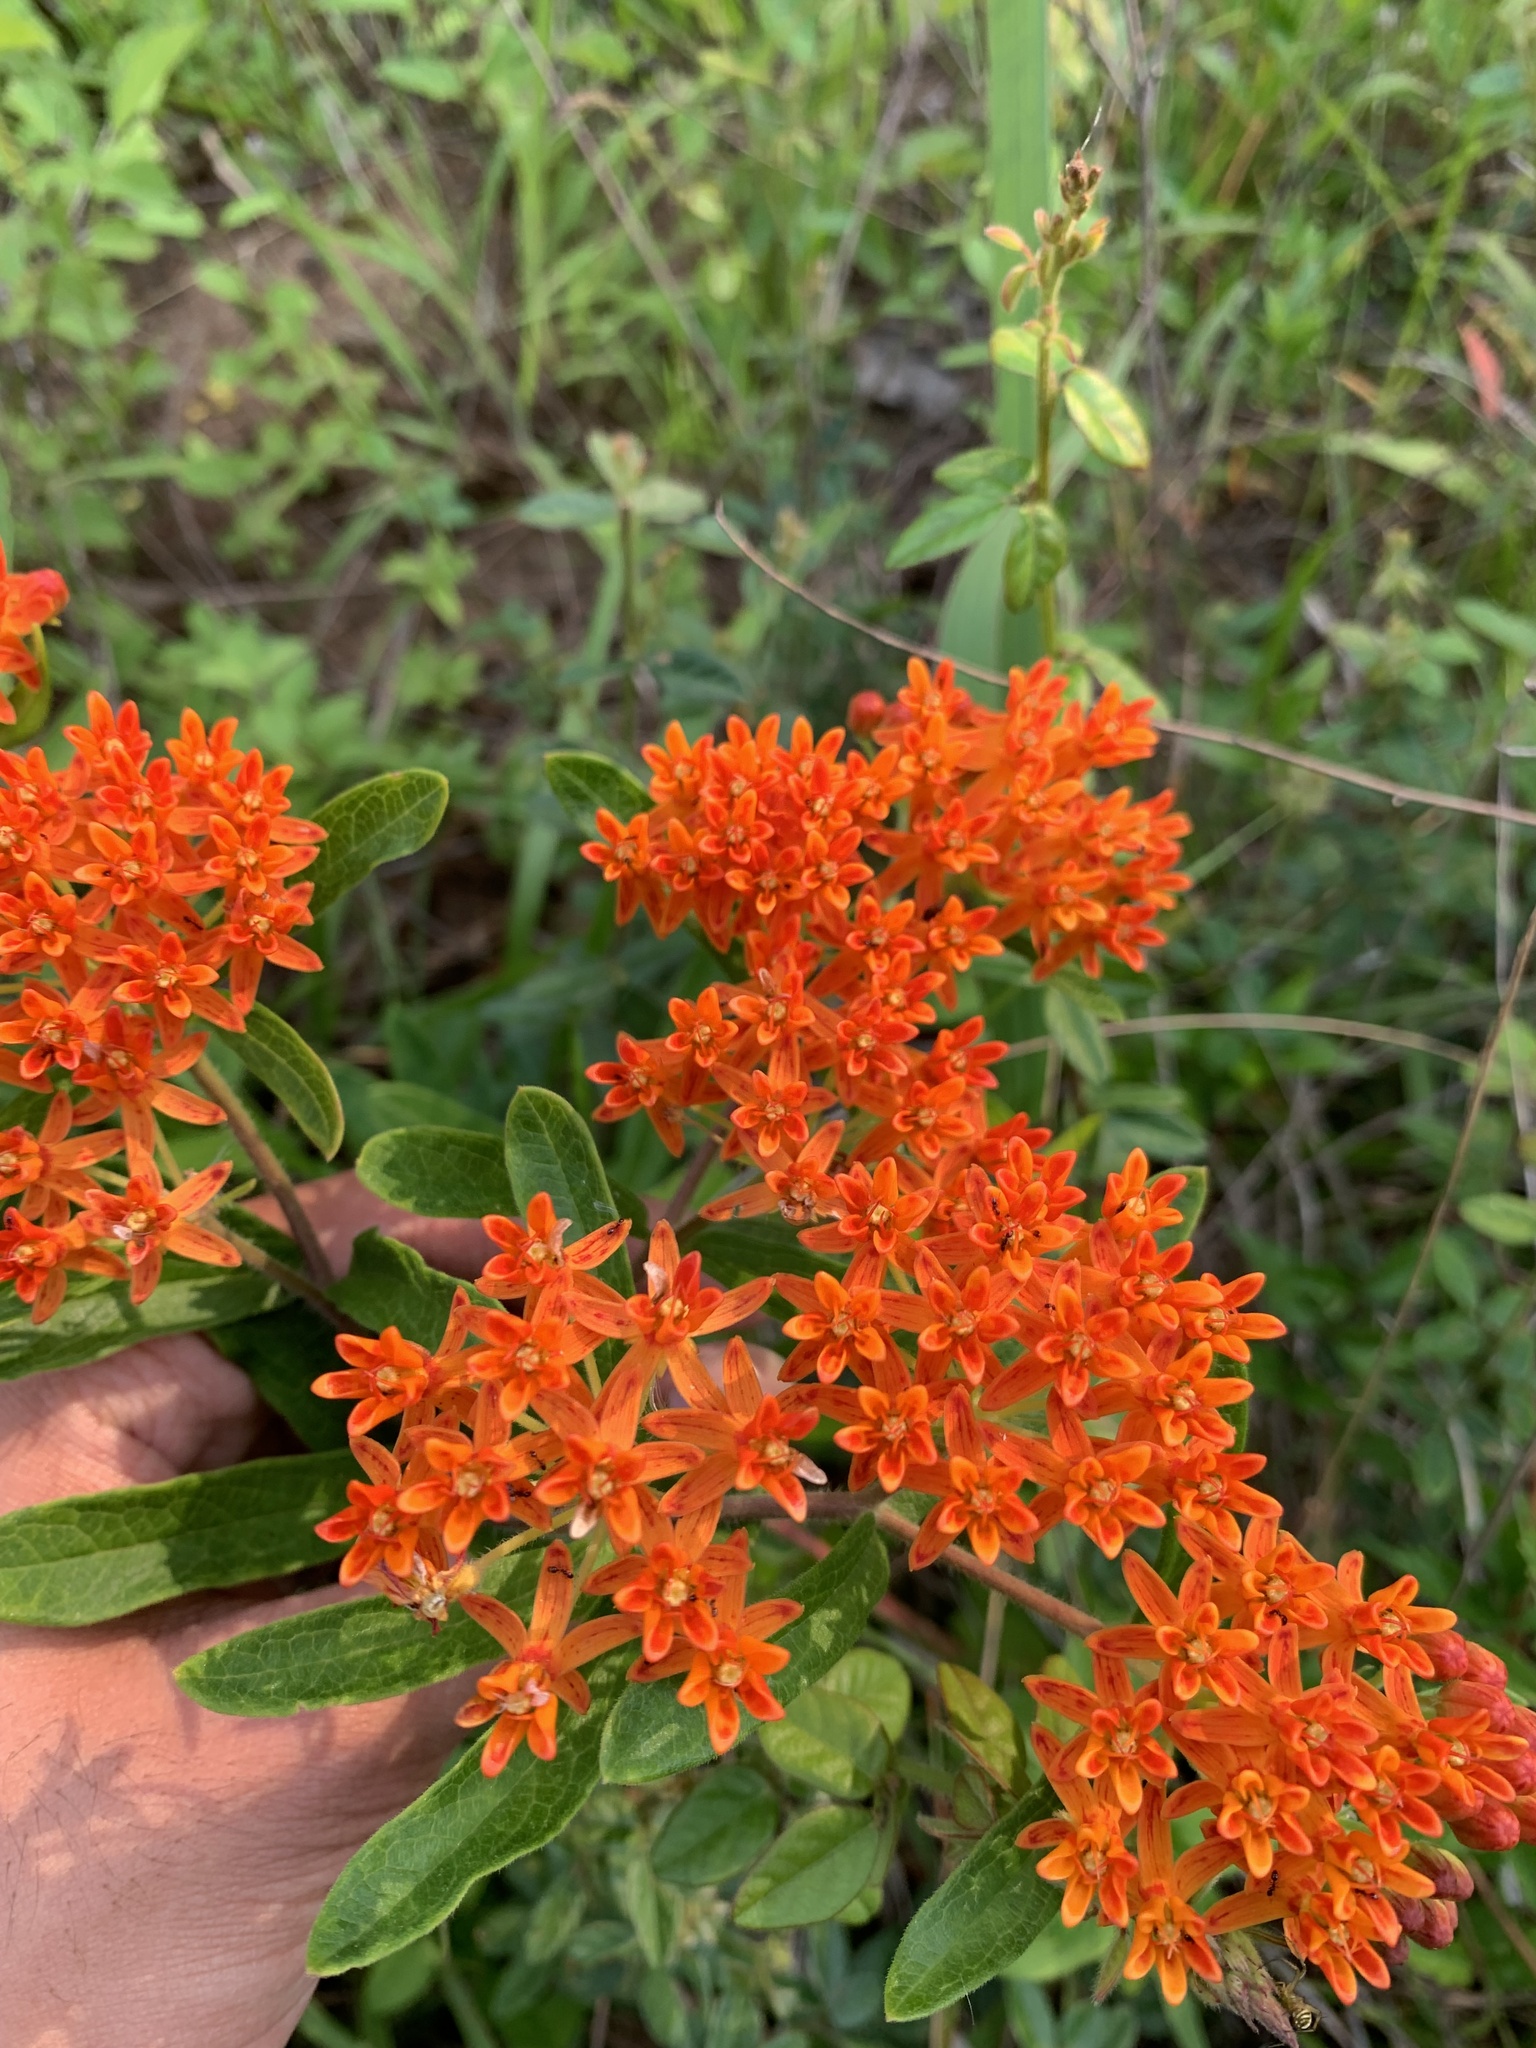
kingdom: Plantae
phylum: Tracheophyta
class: Magnoliopsida
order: Gentianales
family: Apocynaceae
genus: Asclepias
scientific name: Asclepias tuberosa
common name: Butterfly milkweed
